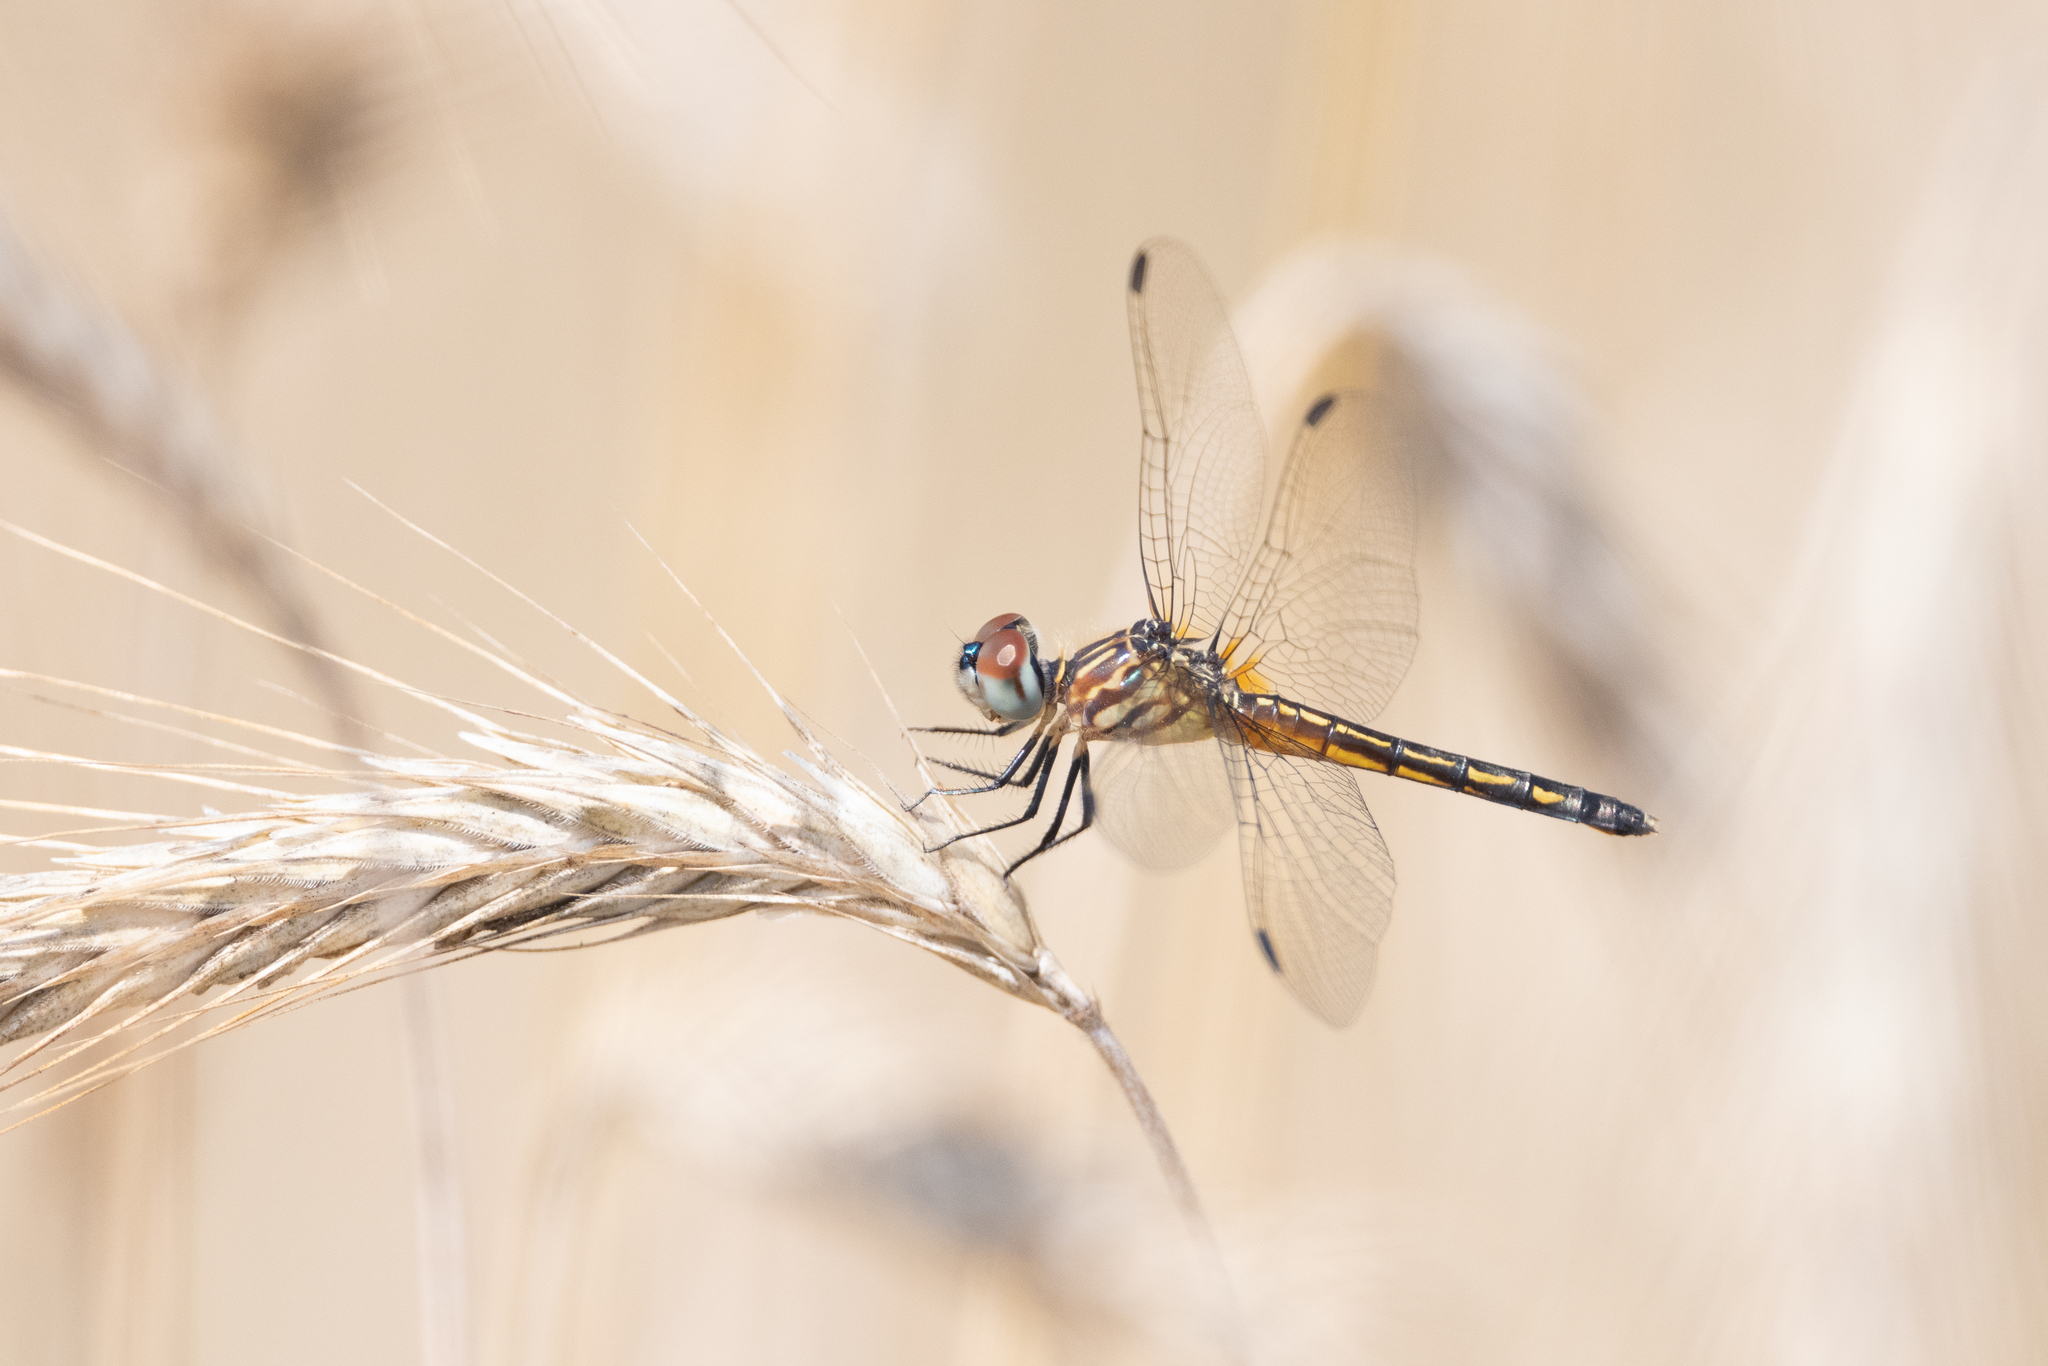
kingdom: Animalia
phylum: Arthropoda
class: Insecta
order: Odonata
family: Libellulidae
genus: Pachydiplax
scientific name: Pachydiplax longipennis
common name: Blue dasher
